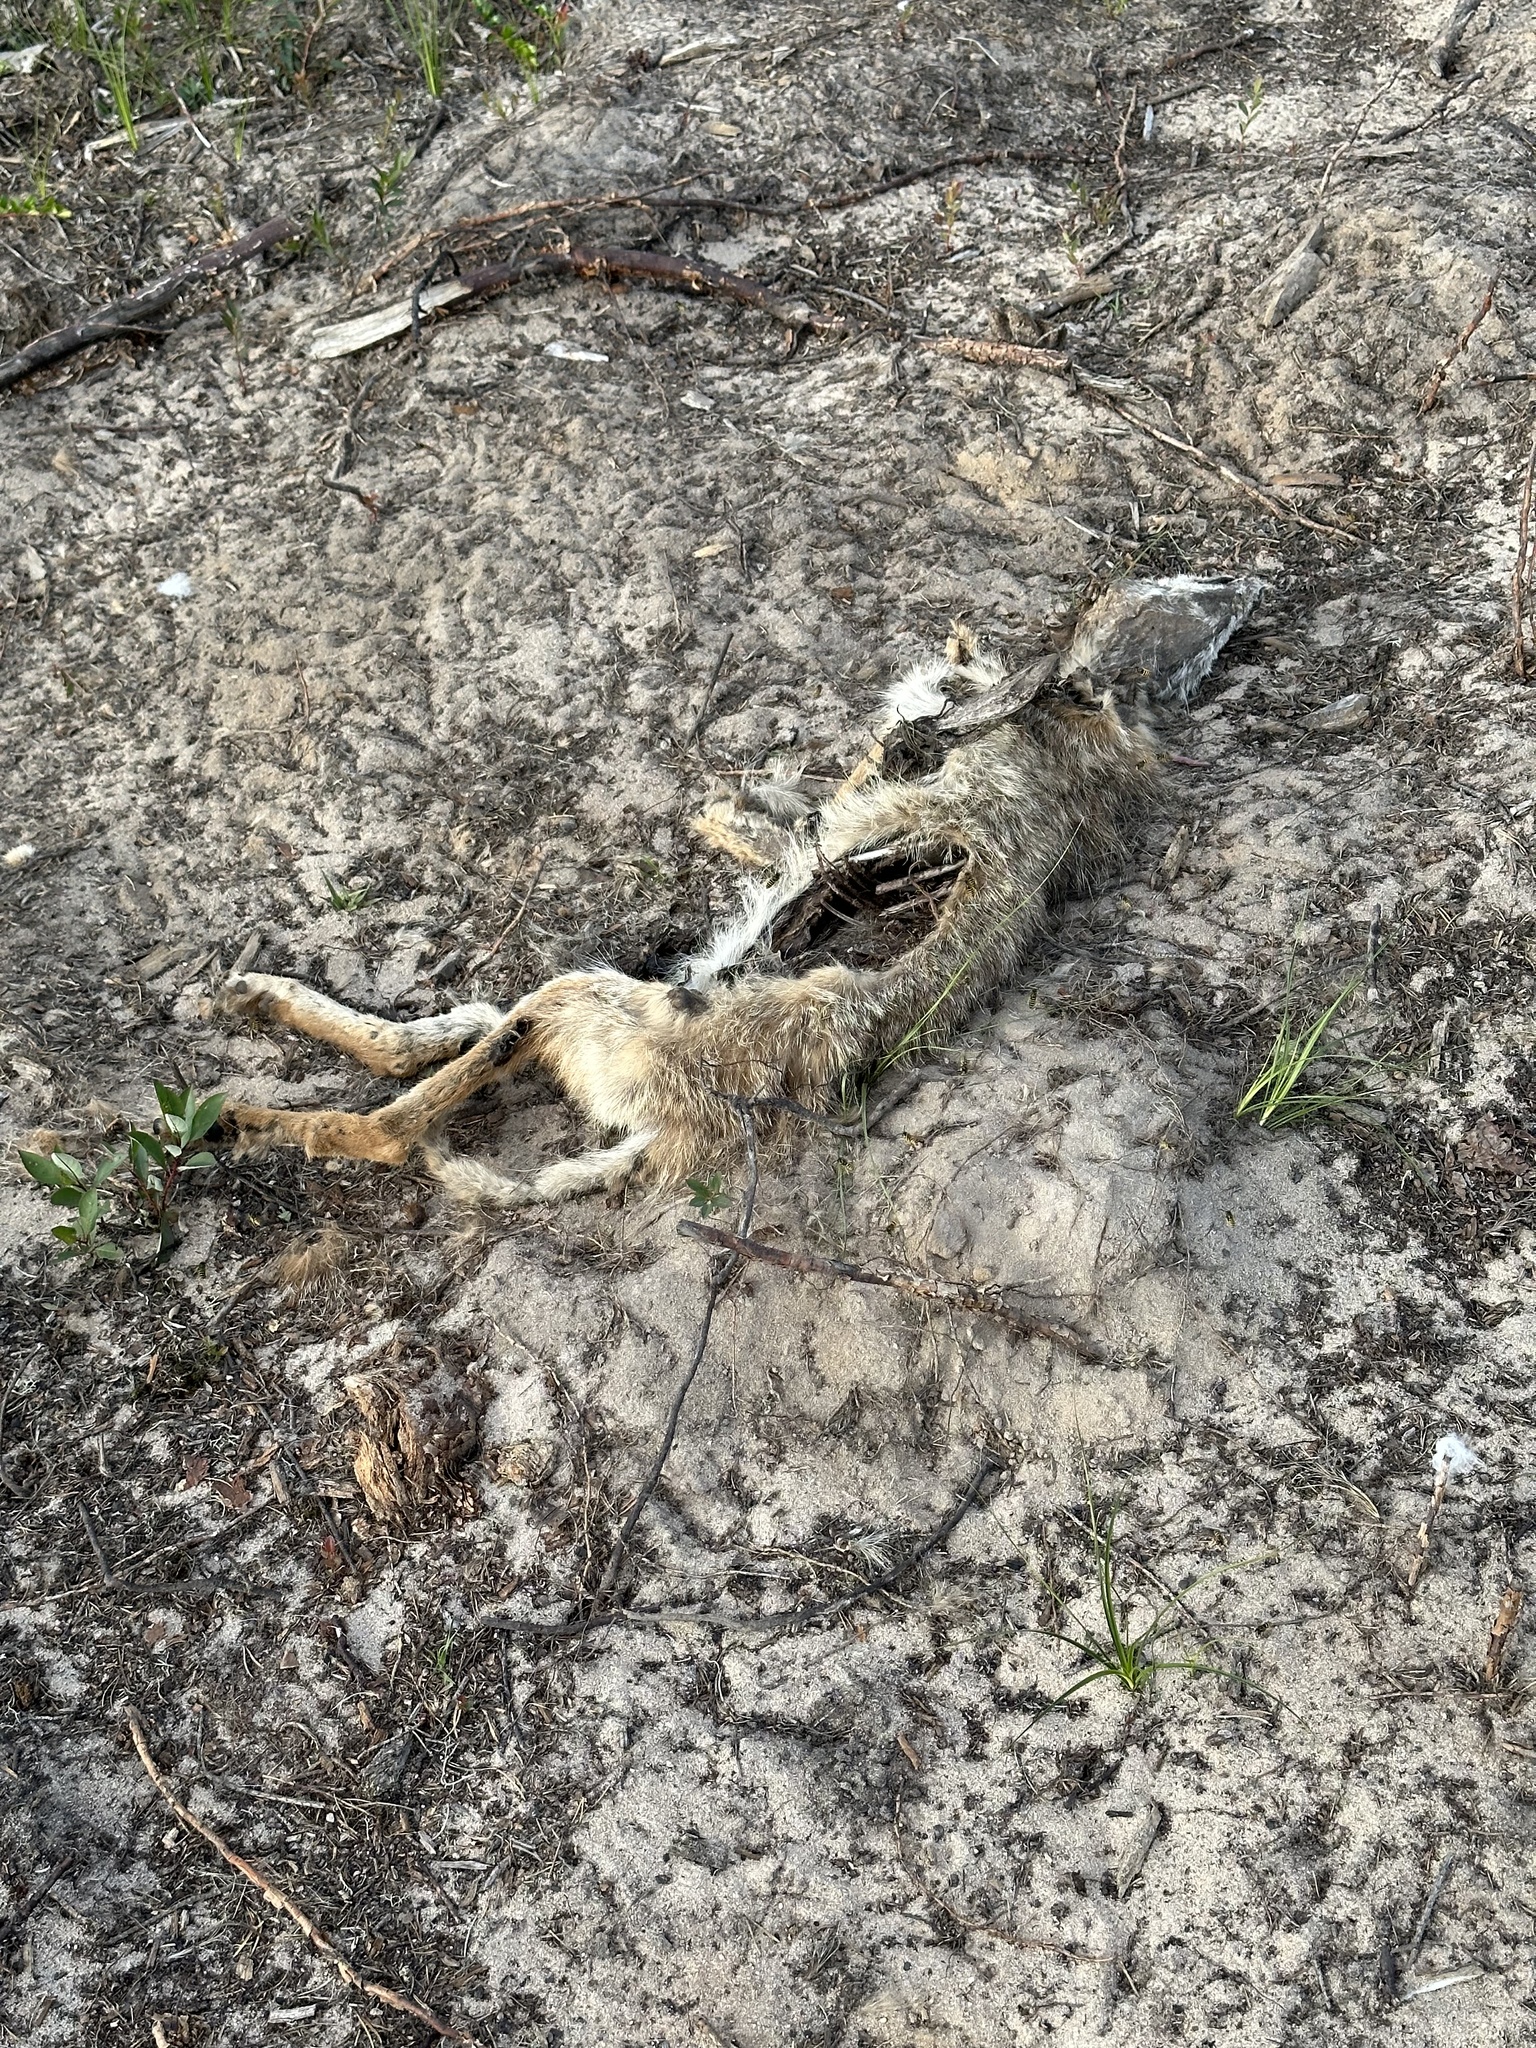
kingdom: Animalia
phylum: Chordata
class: Mammalia
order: Carnivora
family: Canidae
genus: Canis
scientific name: Canis latrans
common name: Coyote
